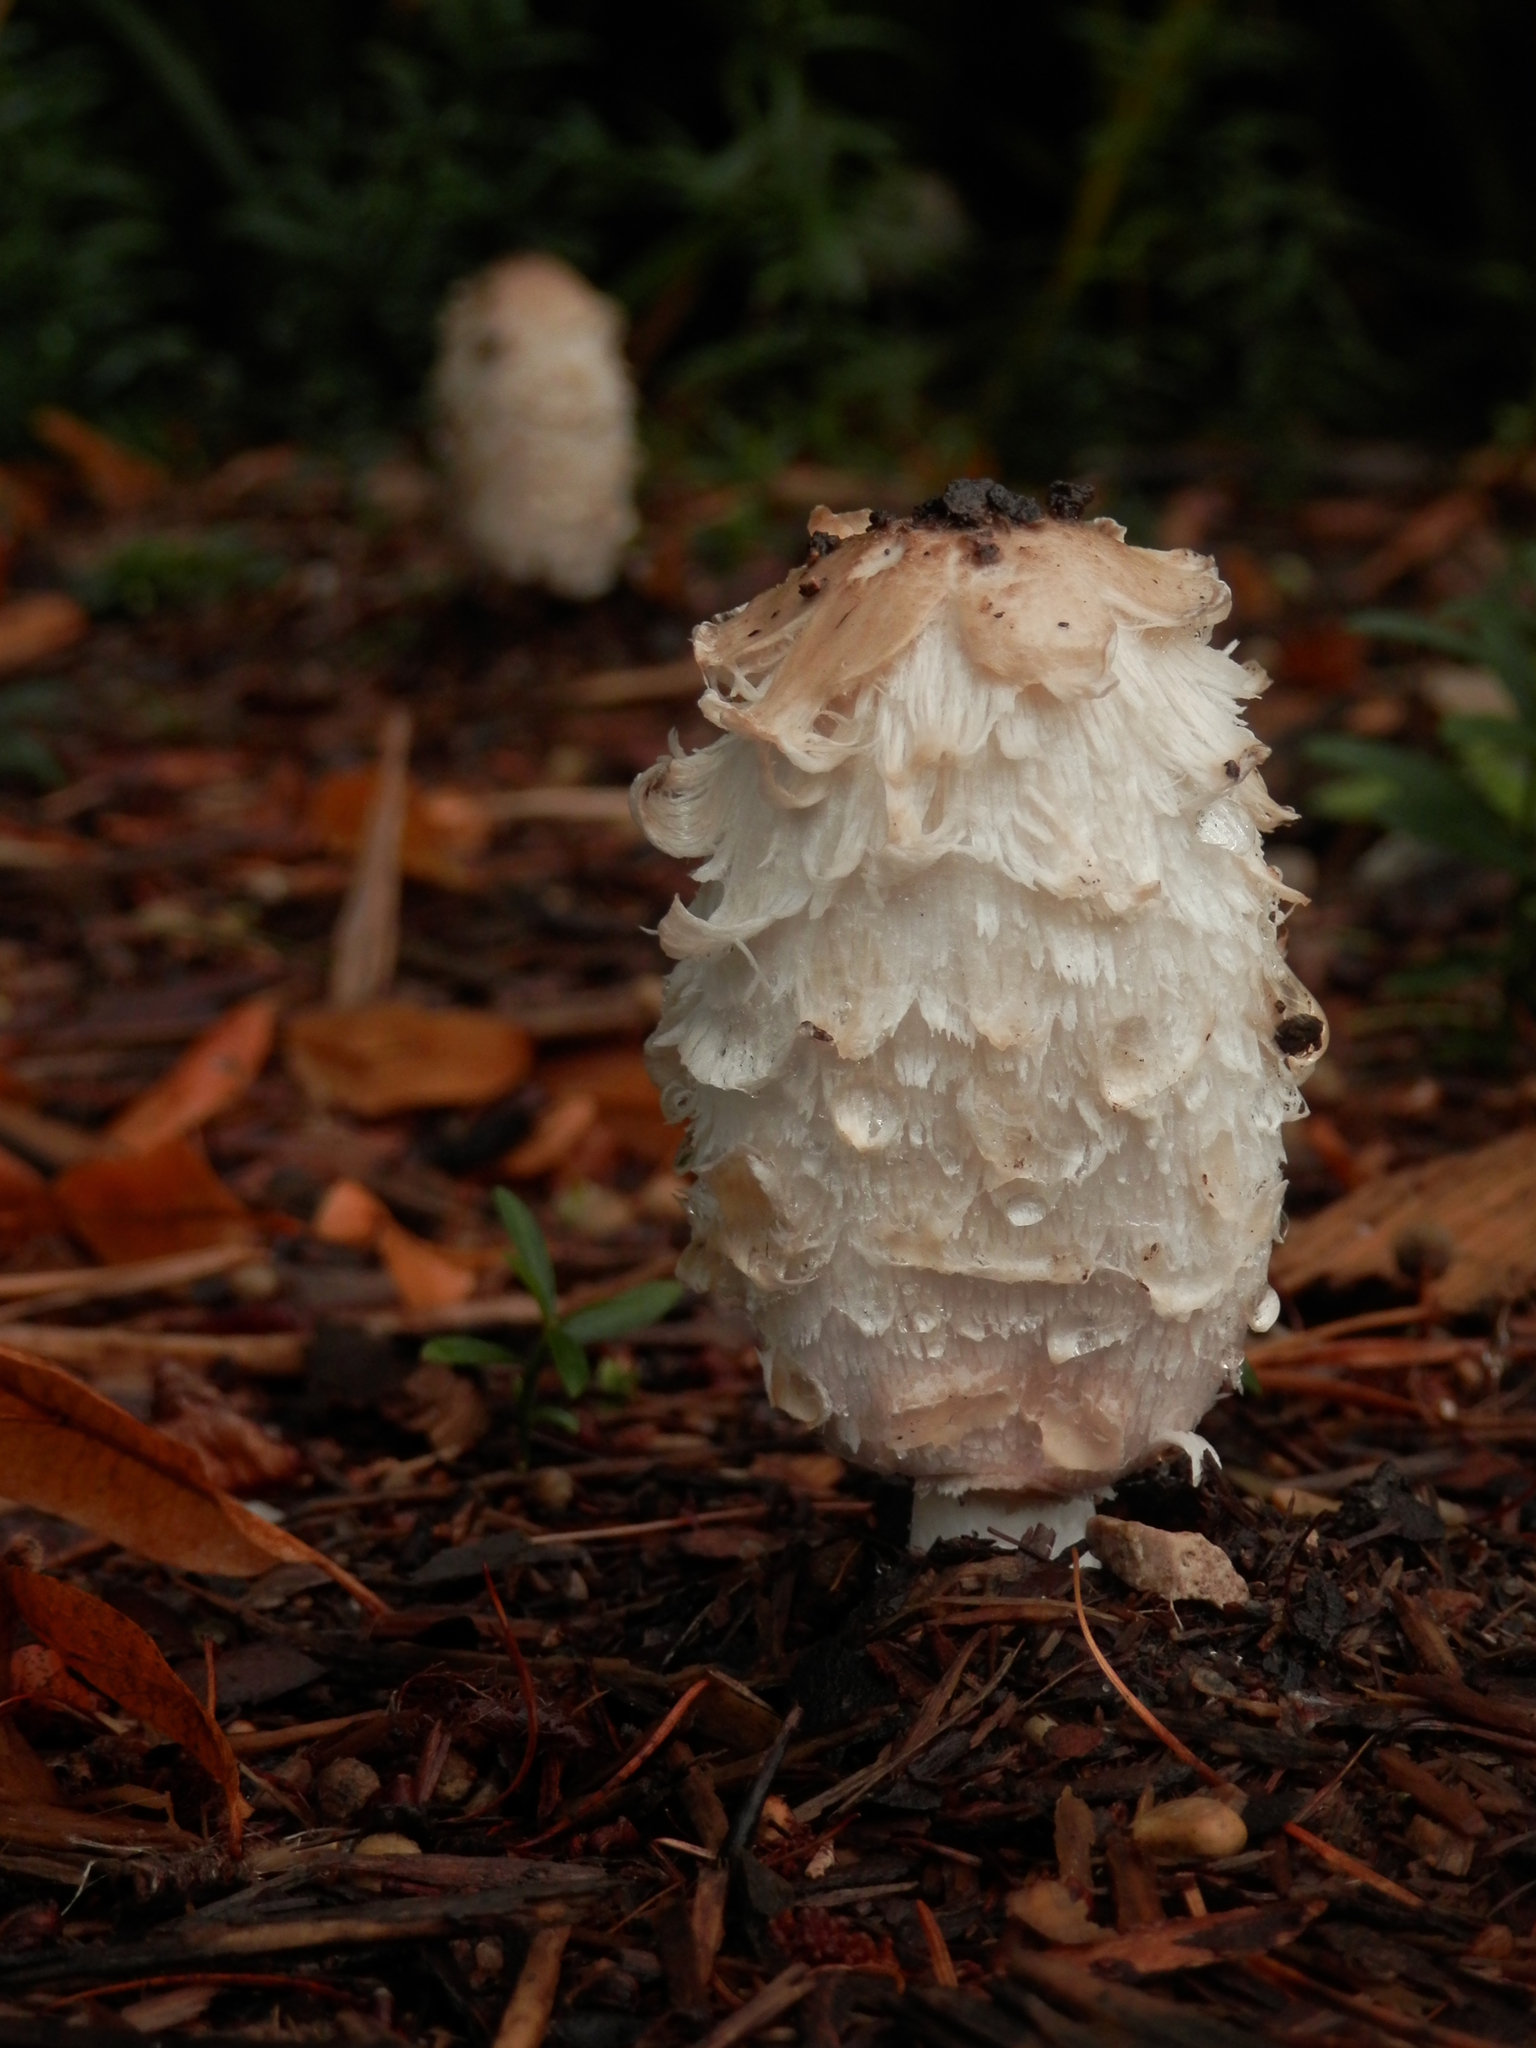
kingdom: Fungi
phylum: Basidiomycota
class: Agaricomycetes
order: Agaricales
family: Agaricaceae
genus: Coprinus
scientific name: Coprinus comatus
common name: Lawyer's wig
